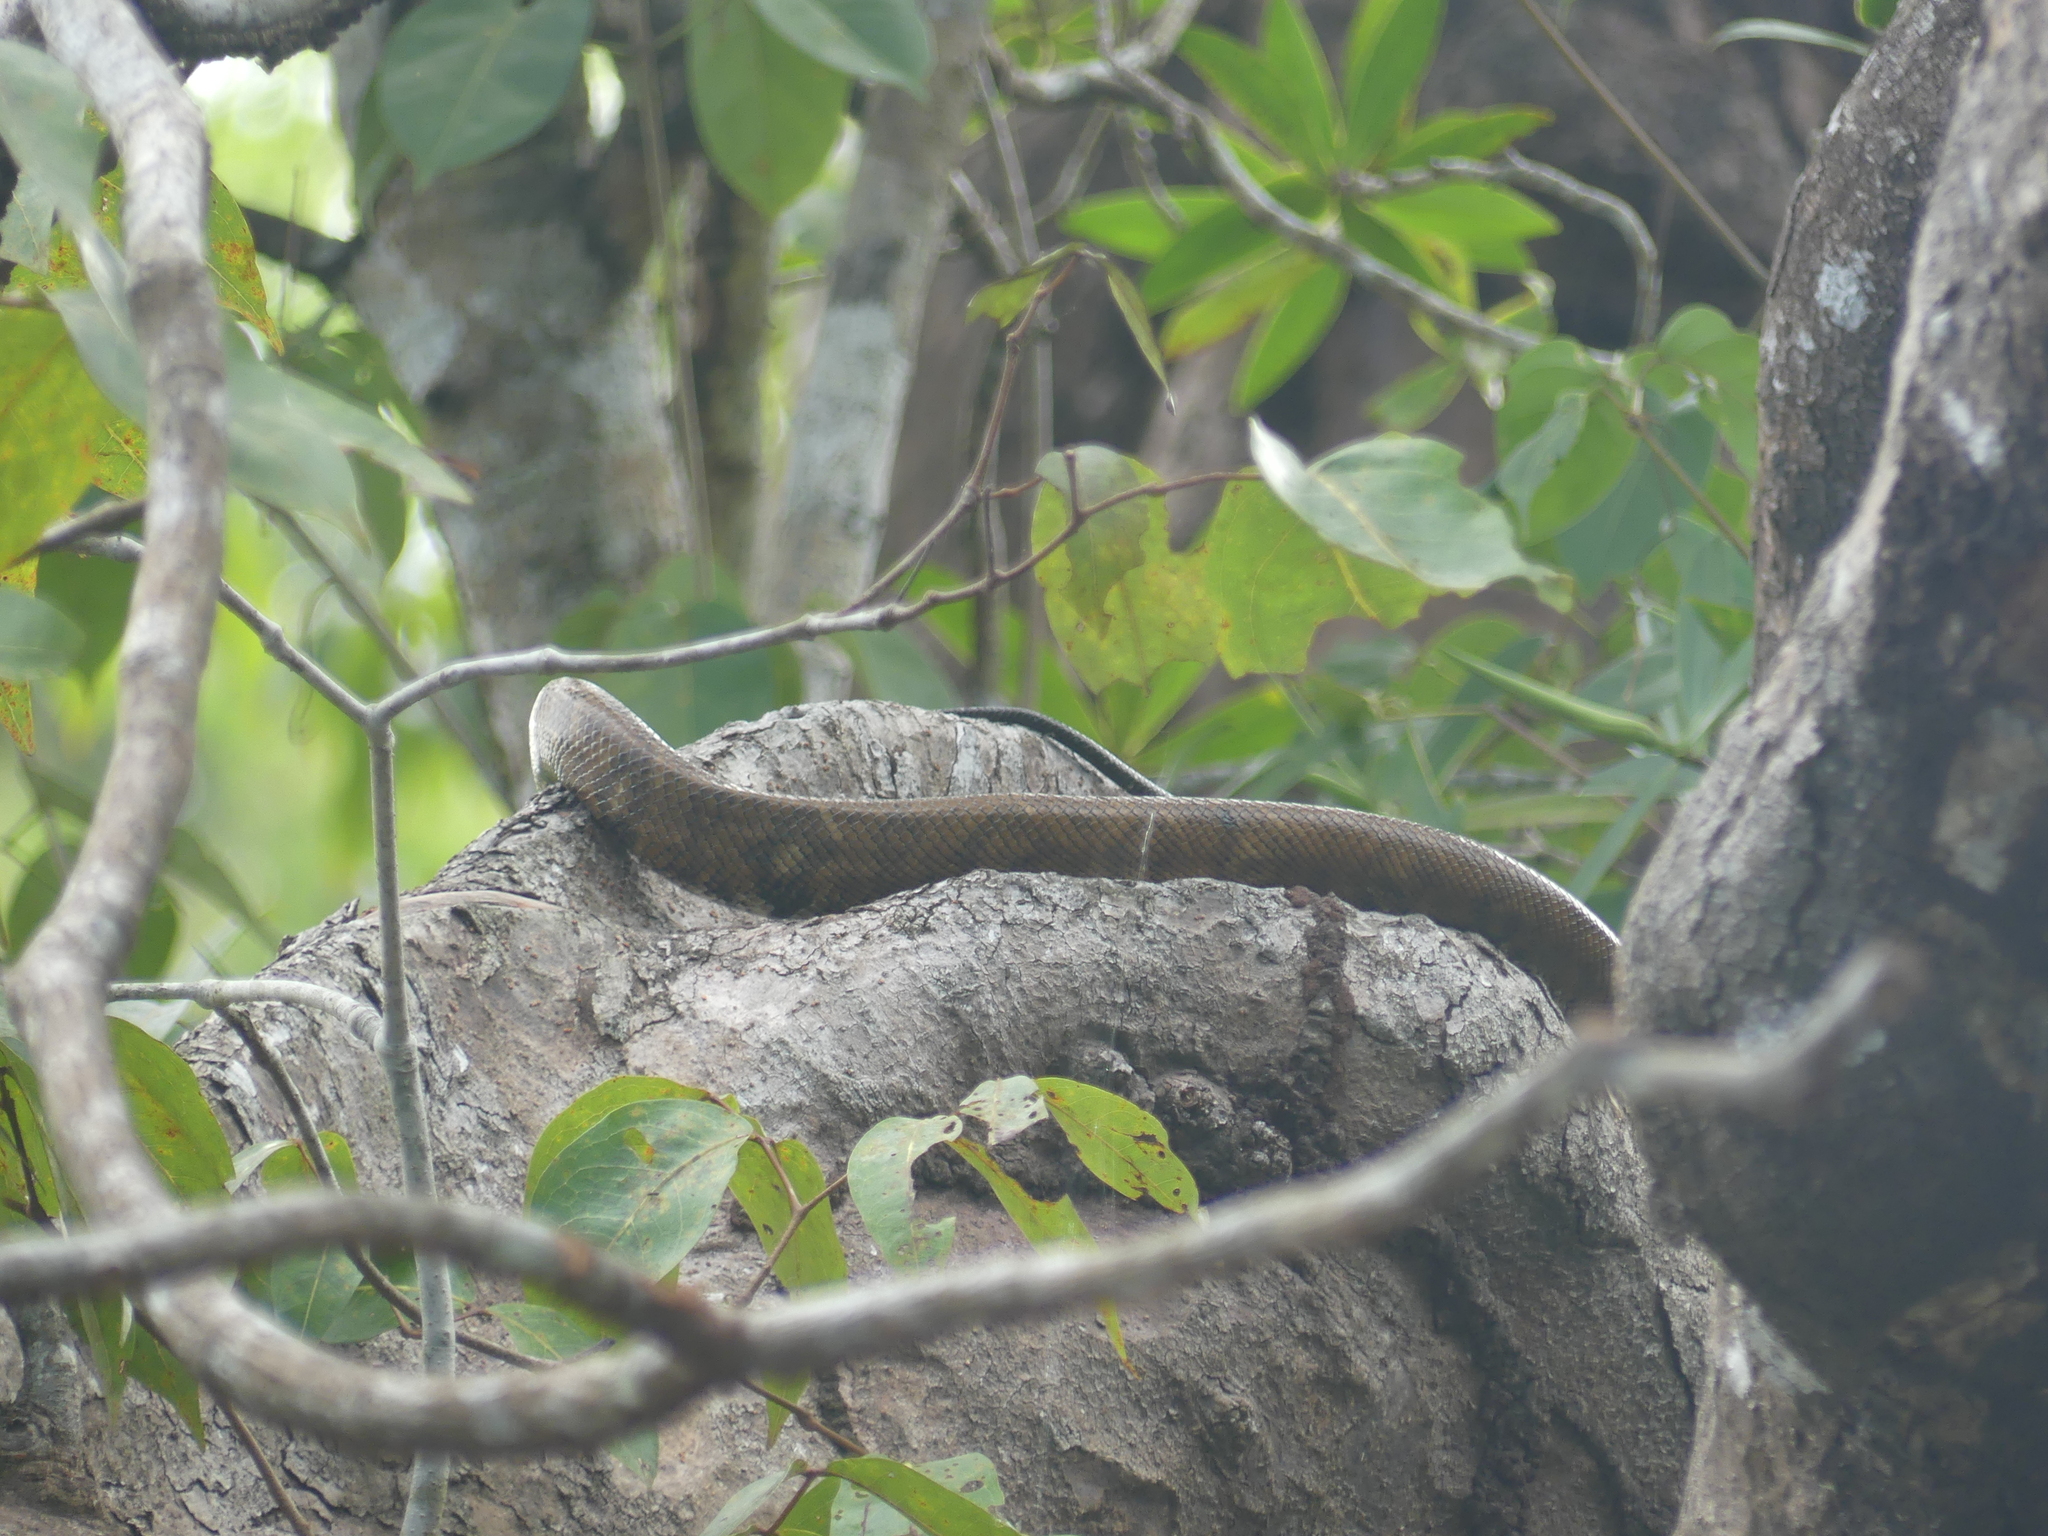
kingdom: Animalia
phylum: Chordata
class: Squamata
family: Boidae
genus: Corallus
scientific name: Corallus ruschenbergerii
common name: Dormilona
